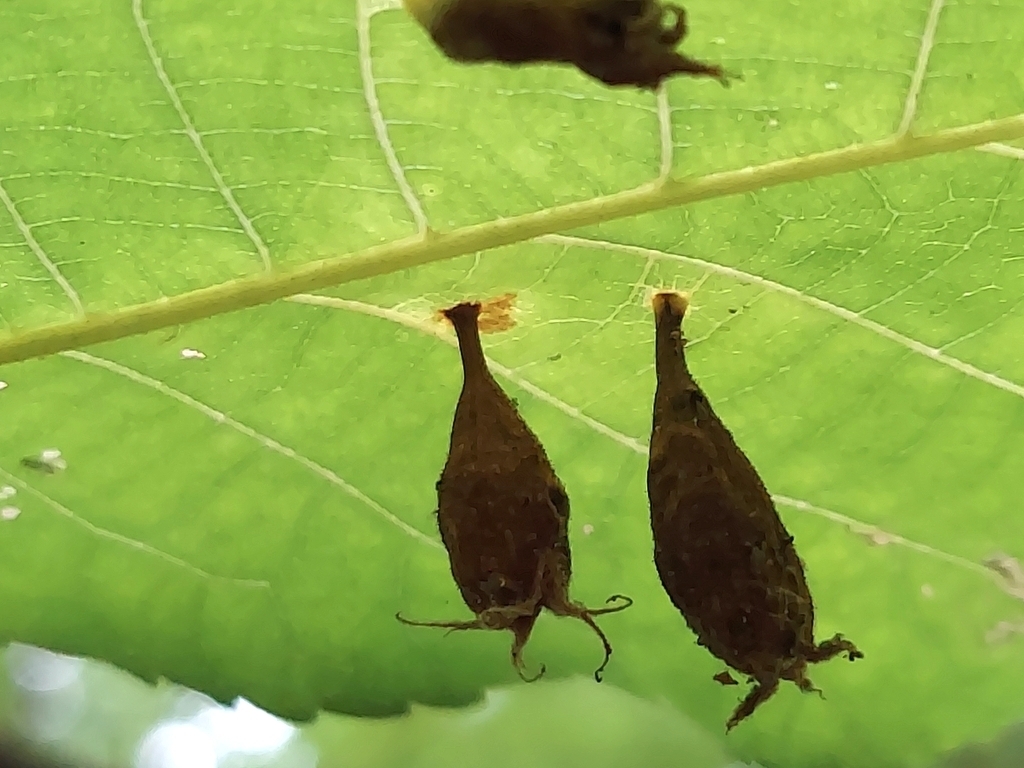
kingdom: Animalia
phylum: Arthropoda
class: Insecta
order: Hemiptera
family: Phylloxeridae
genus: Phylloxera
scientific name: Phylloxera caryaegummosa
